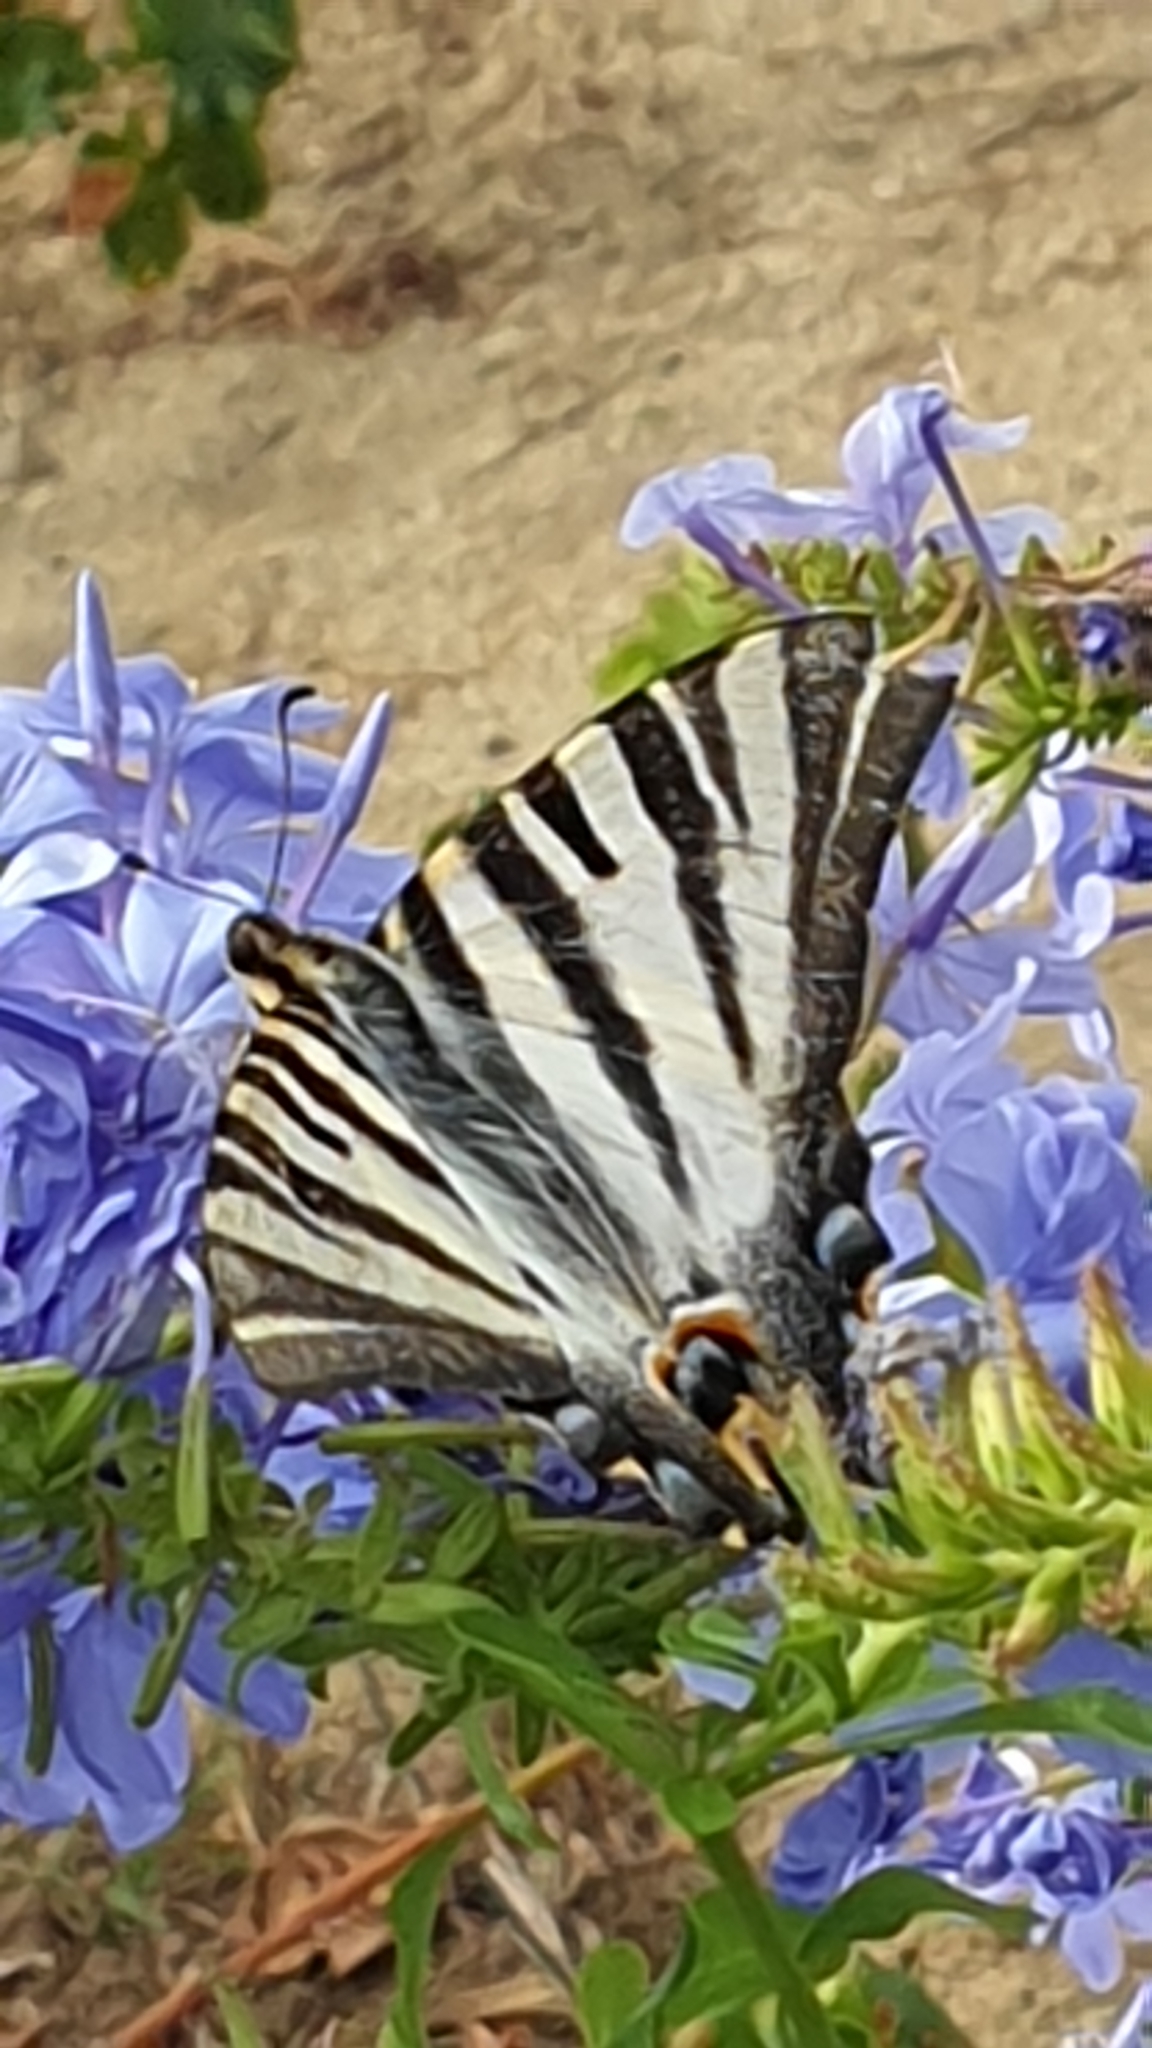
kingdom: Animalia
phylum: Arthropoda
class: Insecta
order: Lepidoptera
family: Papilionidae
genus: Iphiclides
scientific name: Iphiclides feisthamelii
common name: Iberian scarce swallowtail
